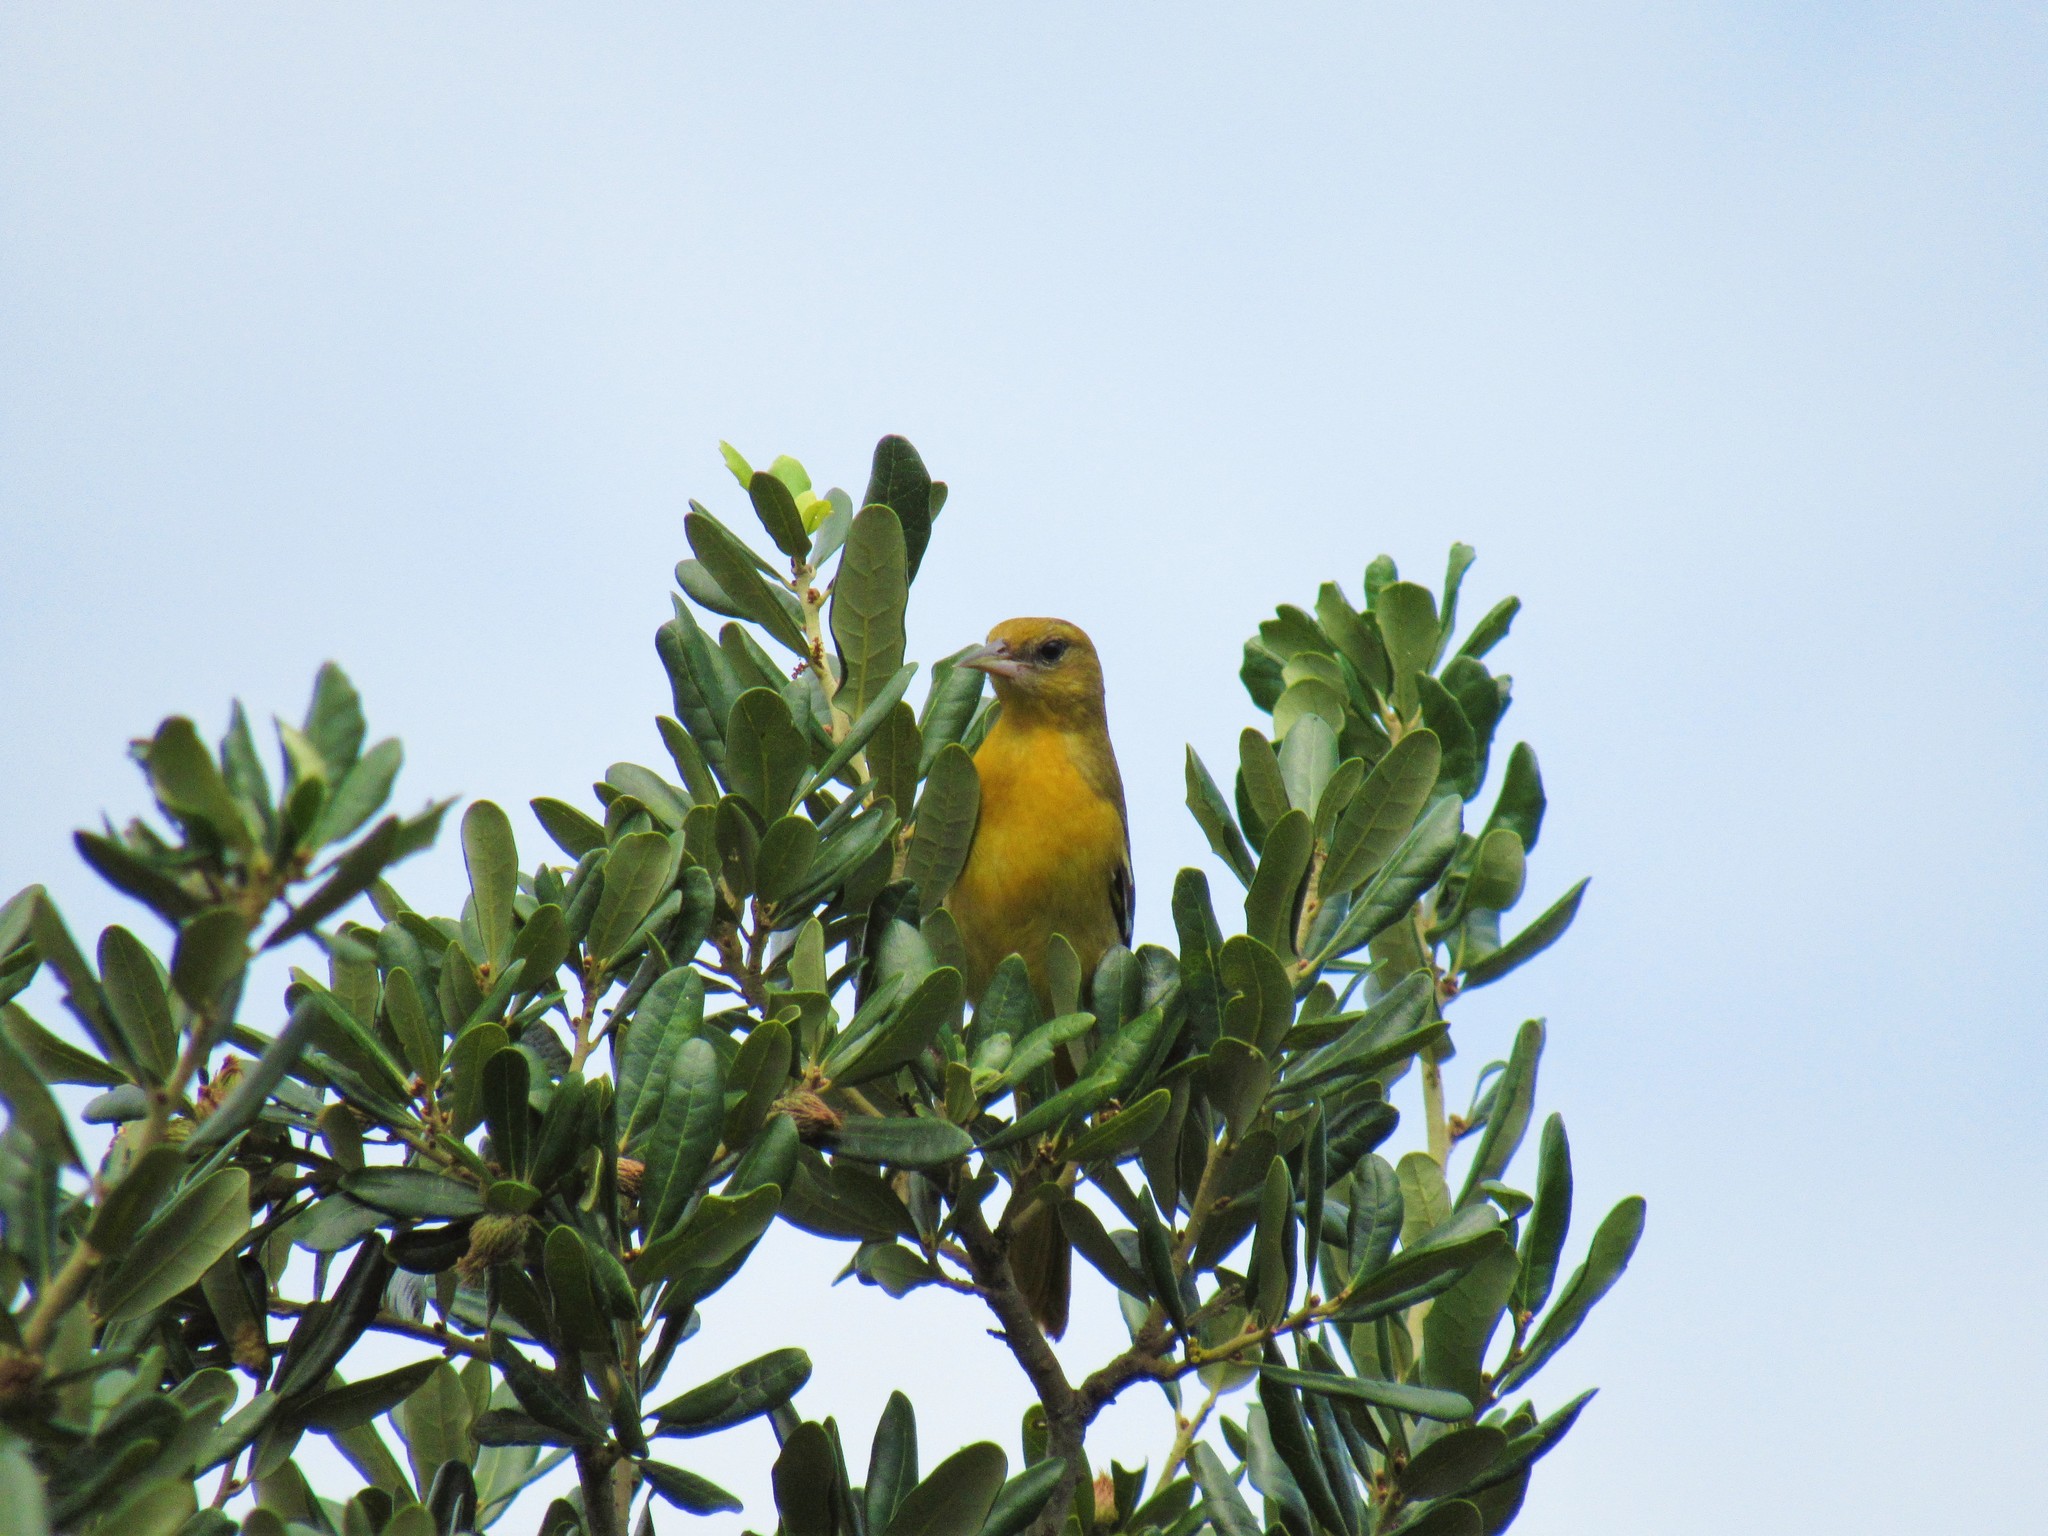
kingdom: Animalia
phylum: Chordata
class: Aves
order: Passeriformes
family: Icteridae
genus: Icterus
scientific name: Icterus galbula
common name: Baltimore oriole
